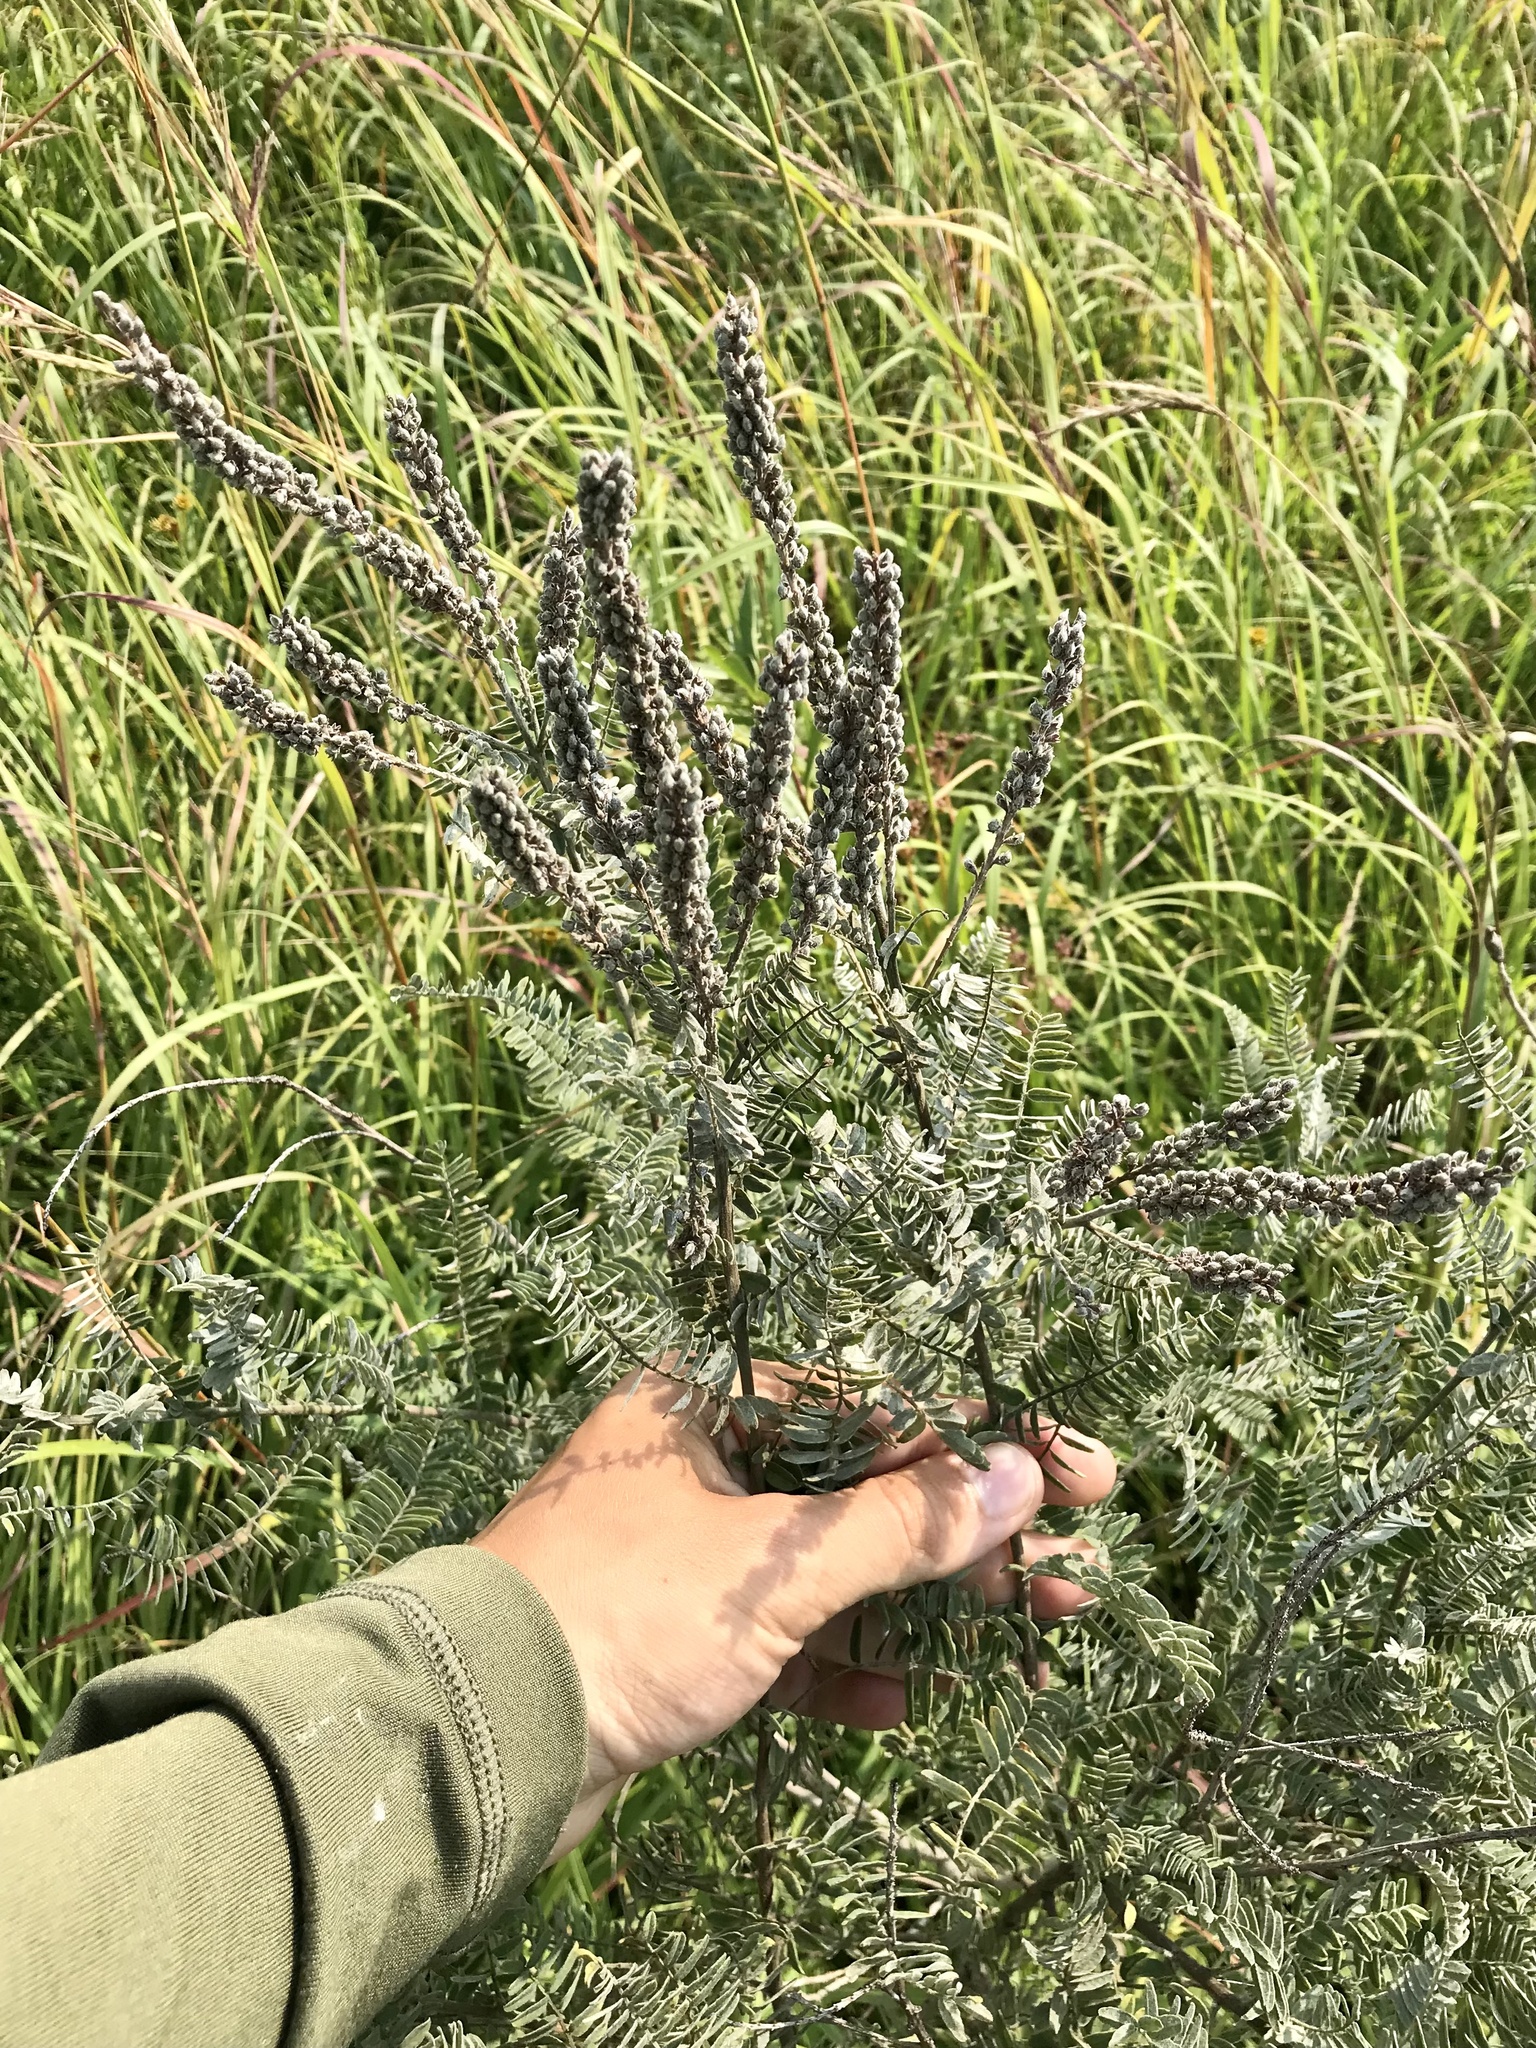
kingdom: Plantae
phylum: Tracheophyta
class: Magnoliopsida
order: Fabales
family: Fabaceae
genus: Amorpha
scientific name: Amorpha canescens
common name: Leadplant
